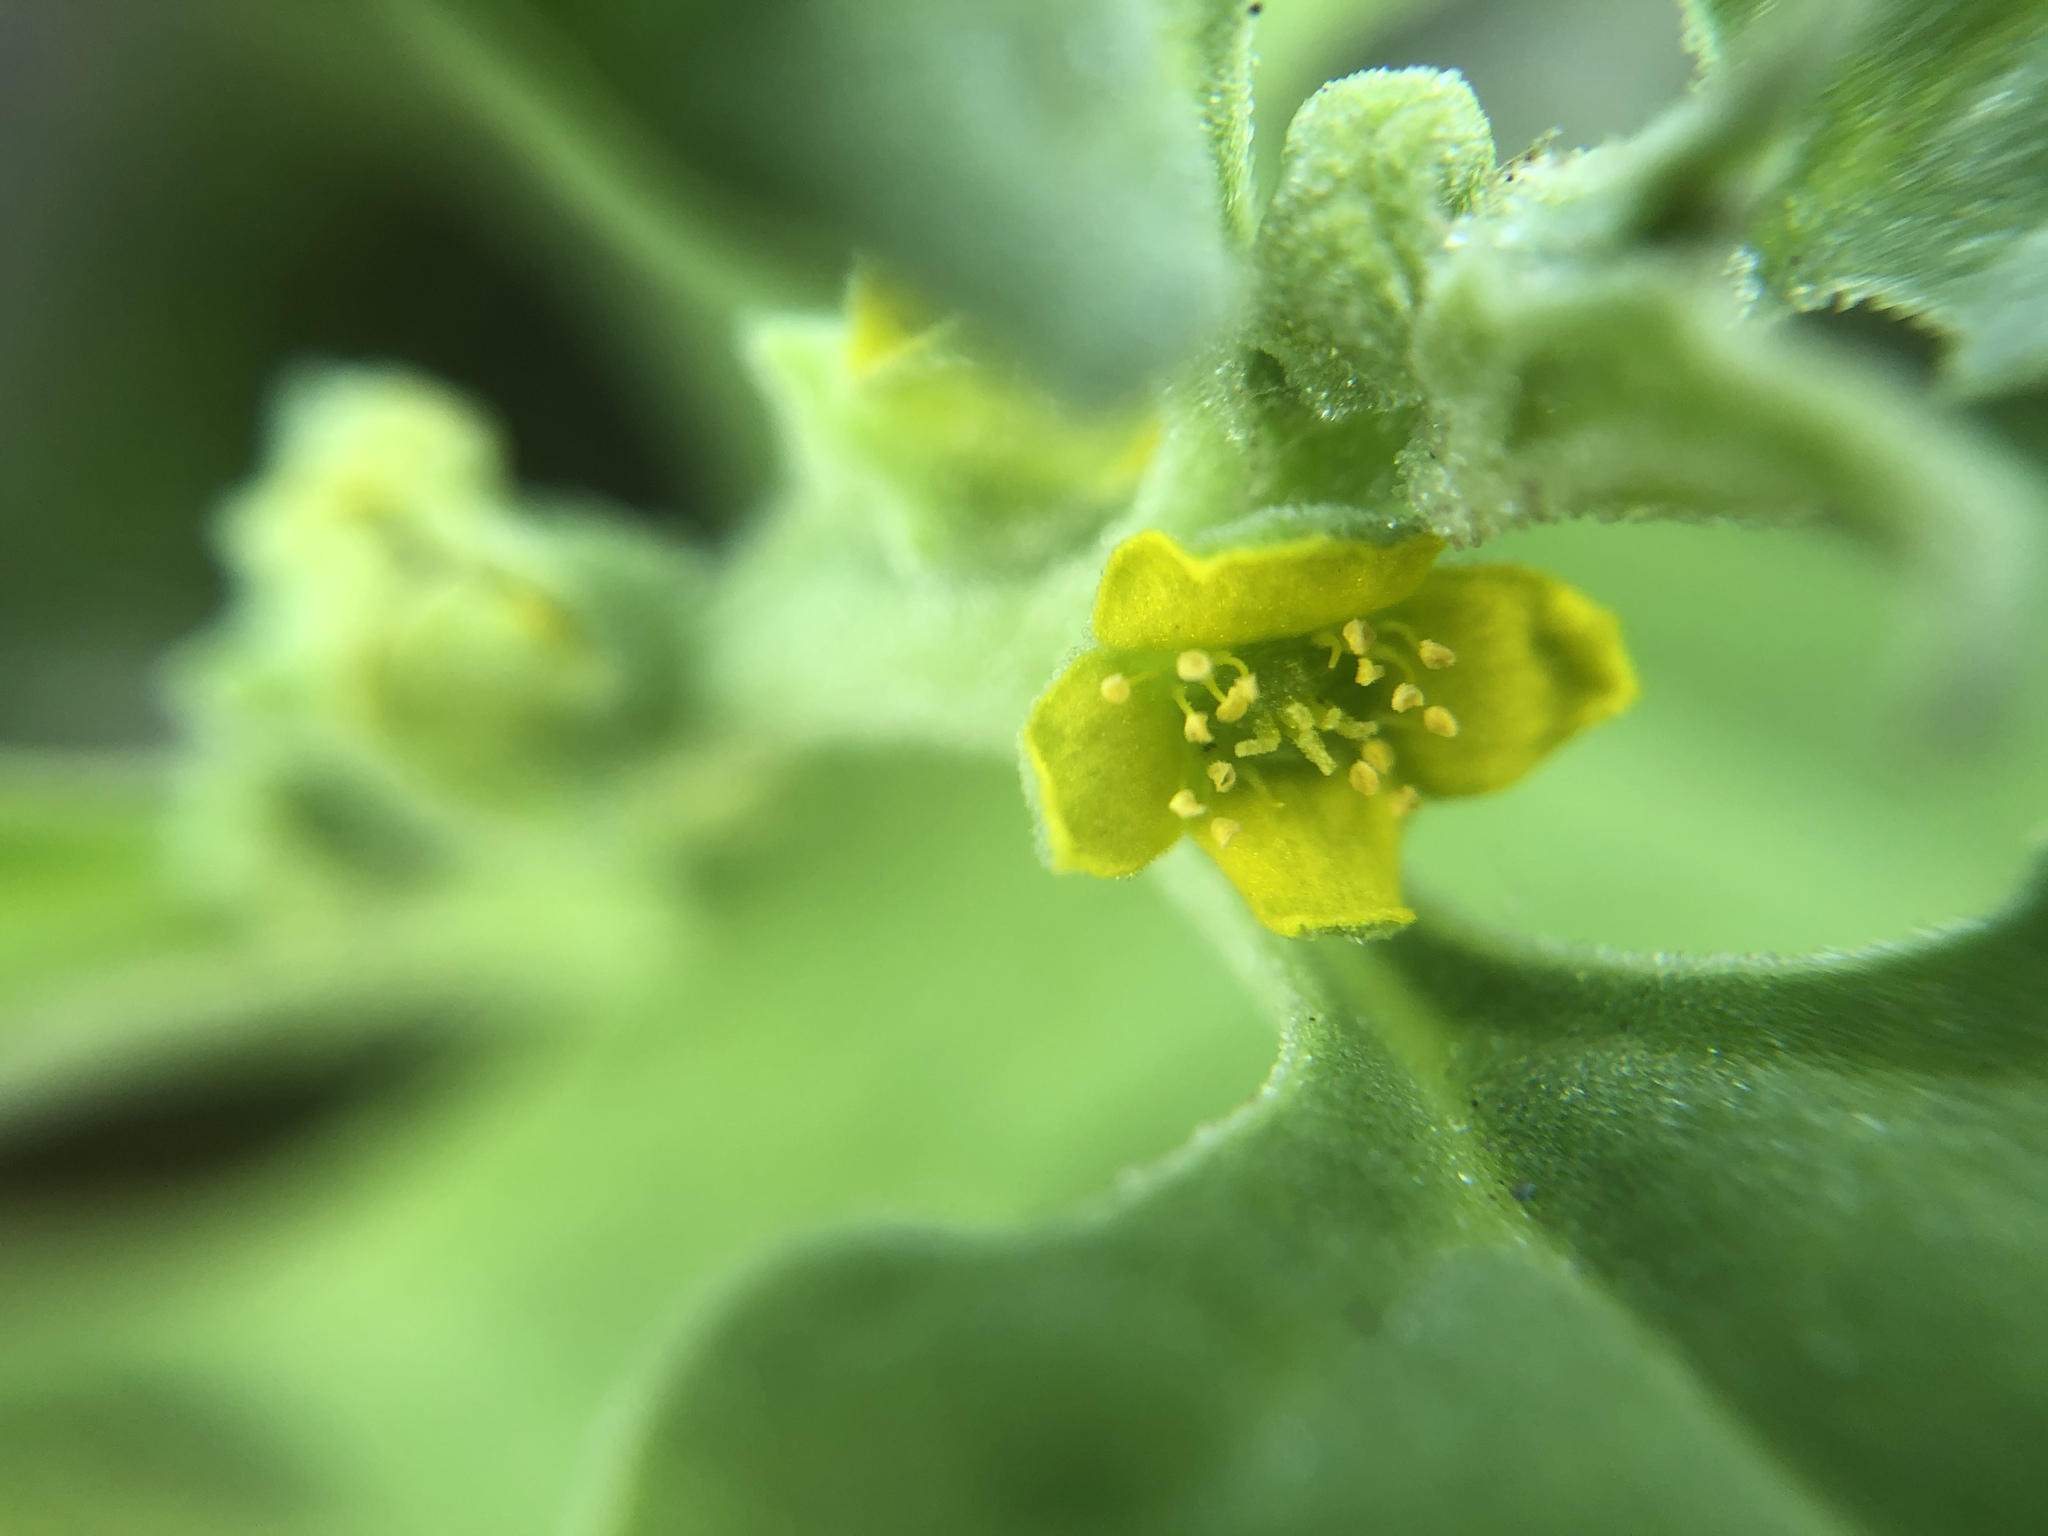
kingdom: Plantae
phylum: Tracheophyta
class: Magnoliopsida
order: Caryophyllales
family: Aizoaceae
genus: Tetragonia
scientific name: Tetragonia tetragonoides
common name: New zealand-spinach
